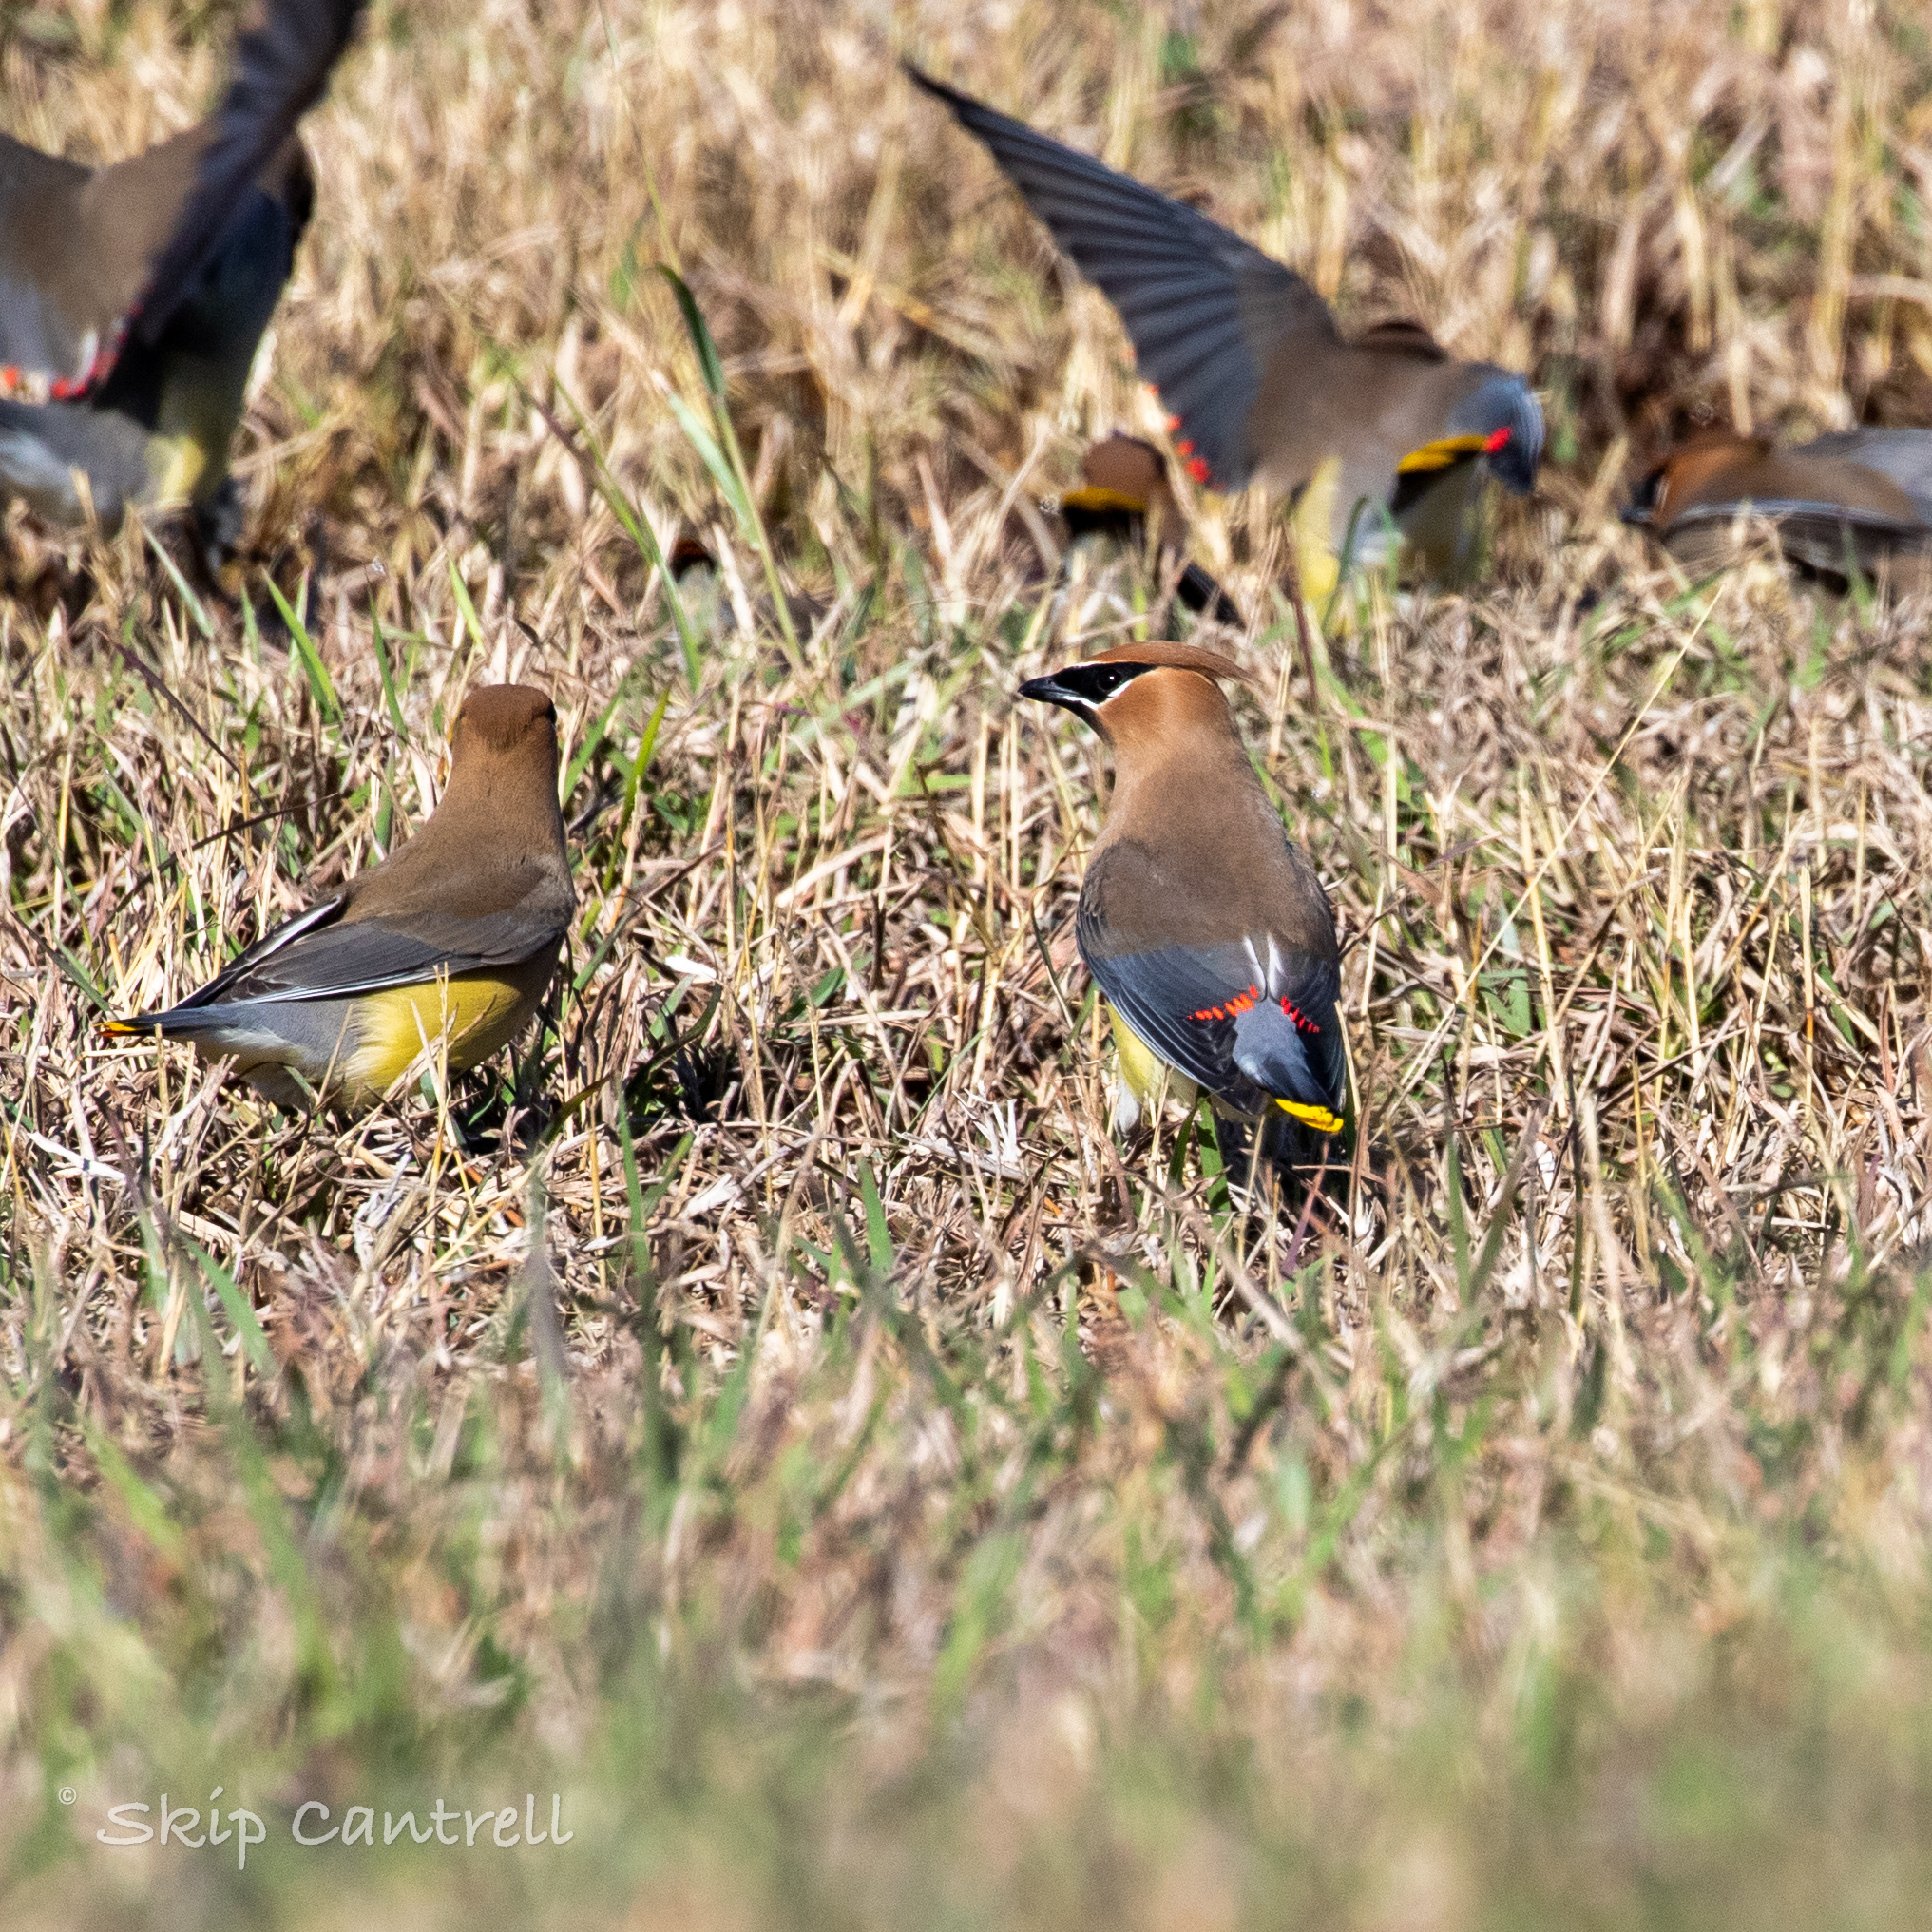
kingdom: Animalia
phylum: Chordata
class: Aves
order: Passeriformes
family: Bombycillidae
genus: Bombycilla
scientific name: Bombycilla cedrorum
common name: Cedar waxwing
